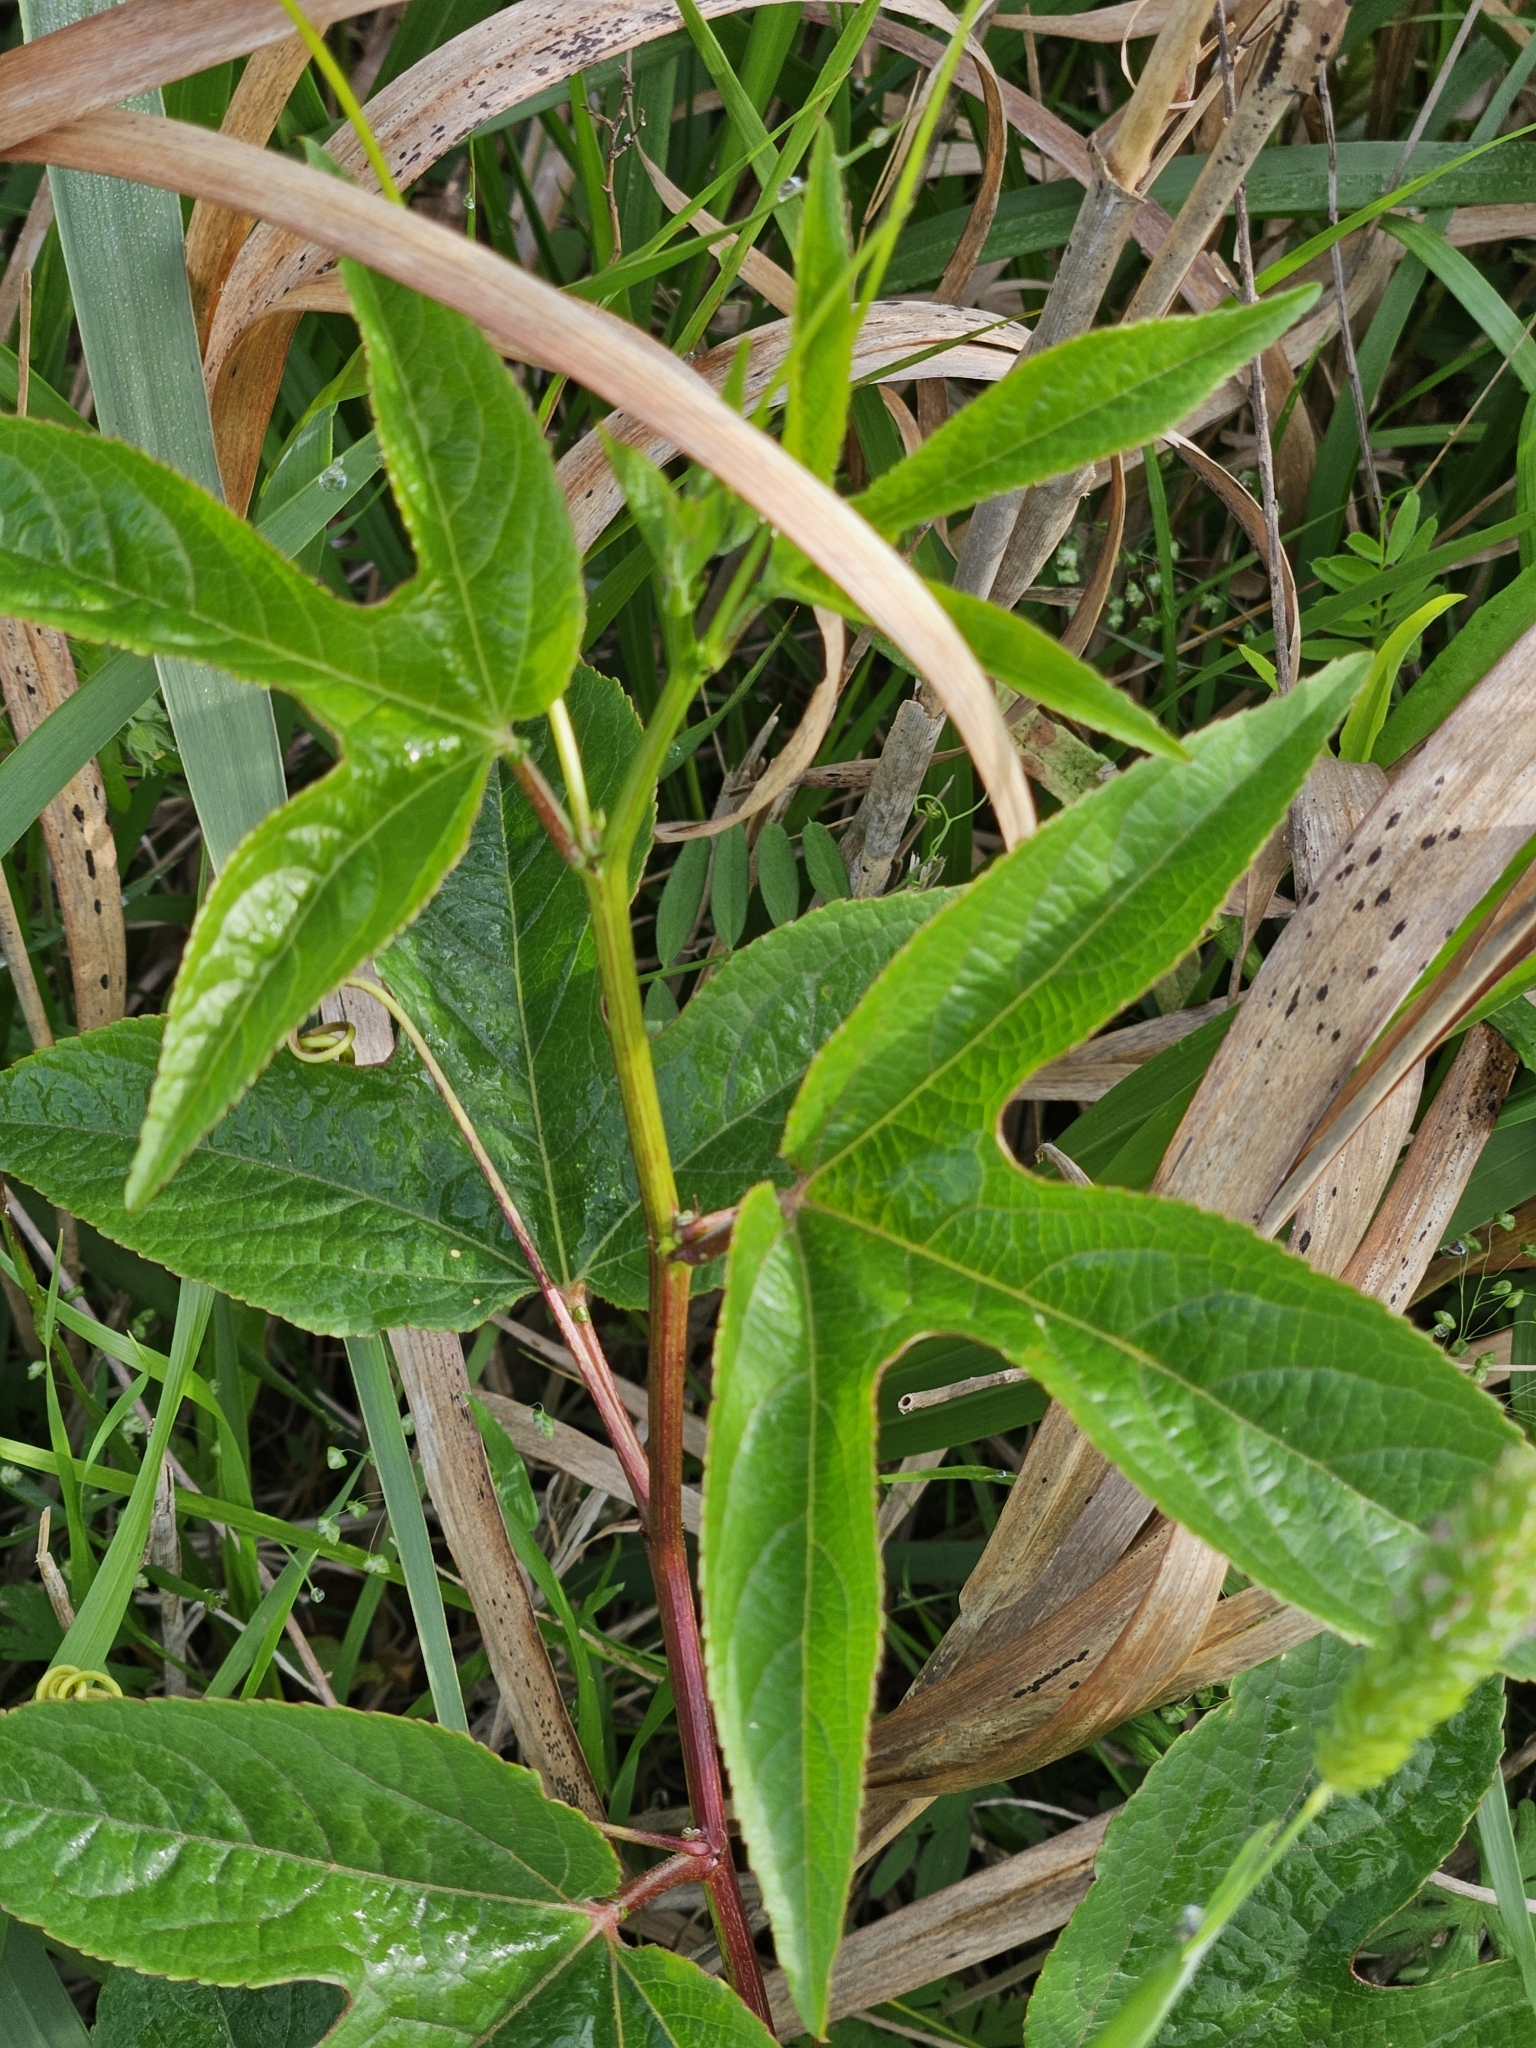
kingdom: Plantae
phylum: Tracheophyta
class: Magnoliopsida
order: Malpighiales
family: Passifloraceae
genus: Passiflora
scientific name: Passiflora incarnata
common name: Apricot-vine
